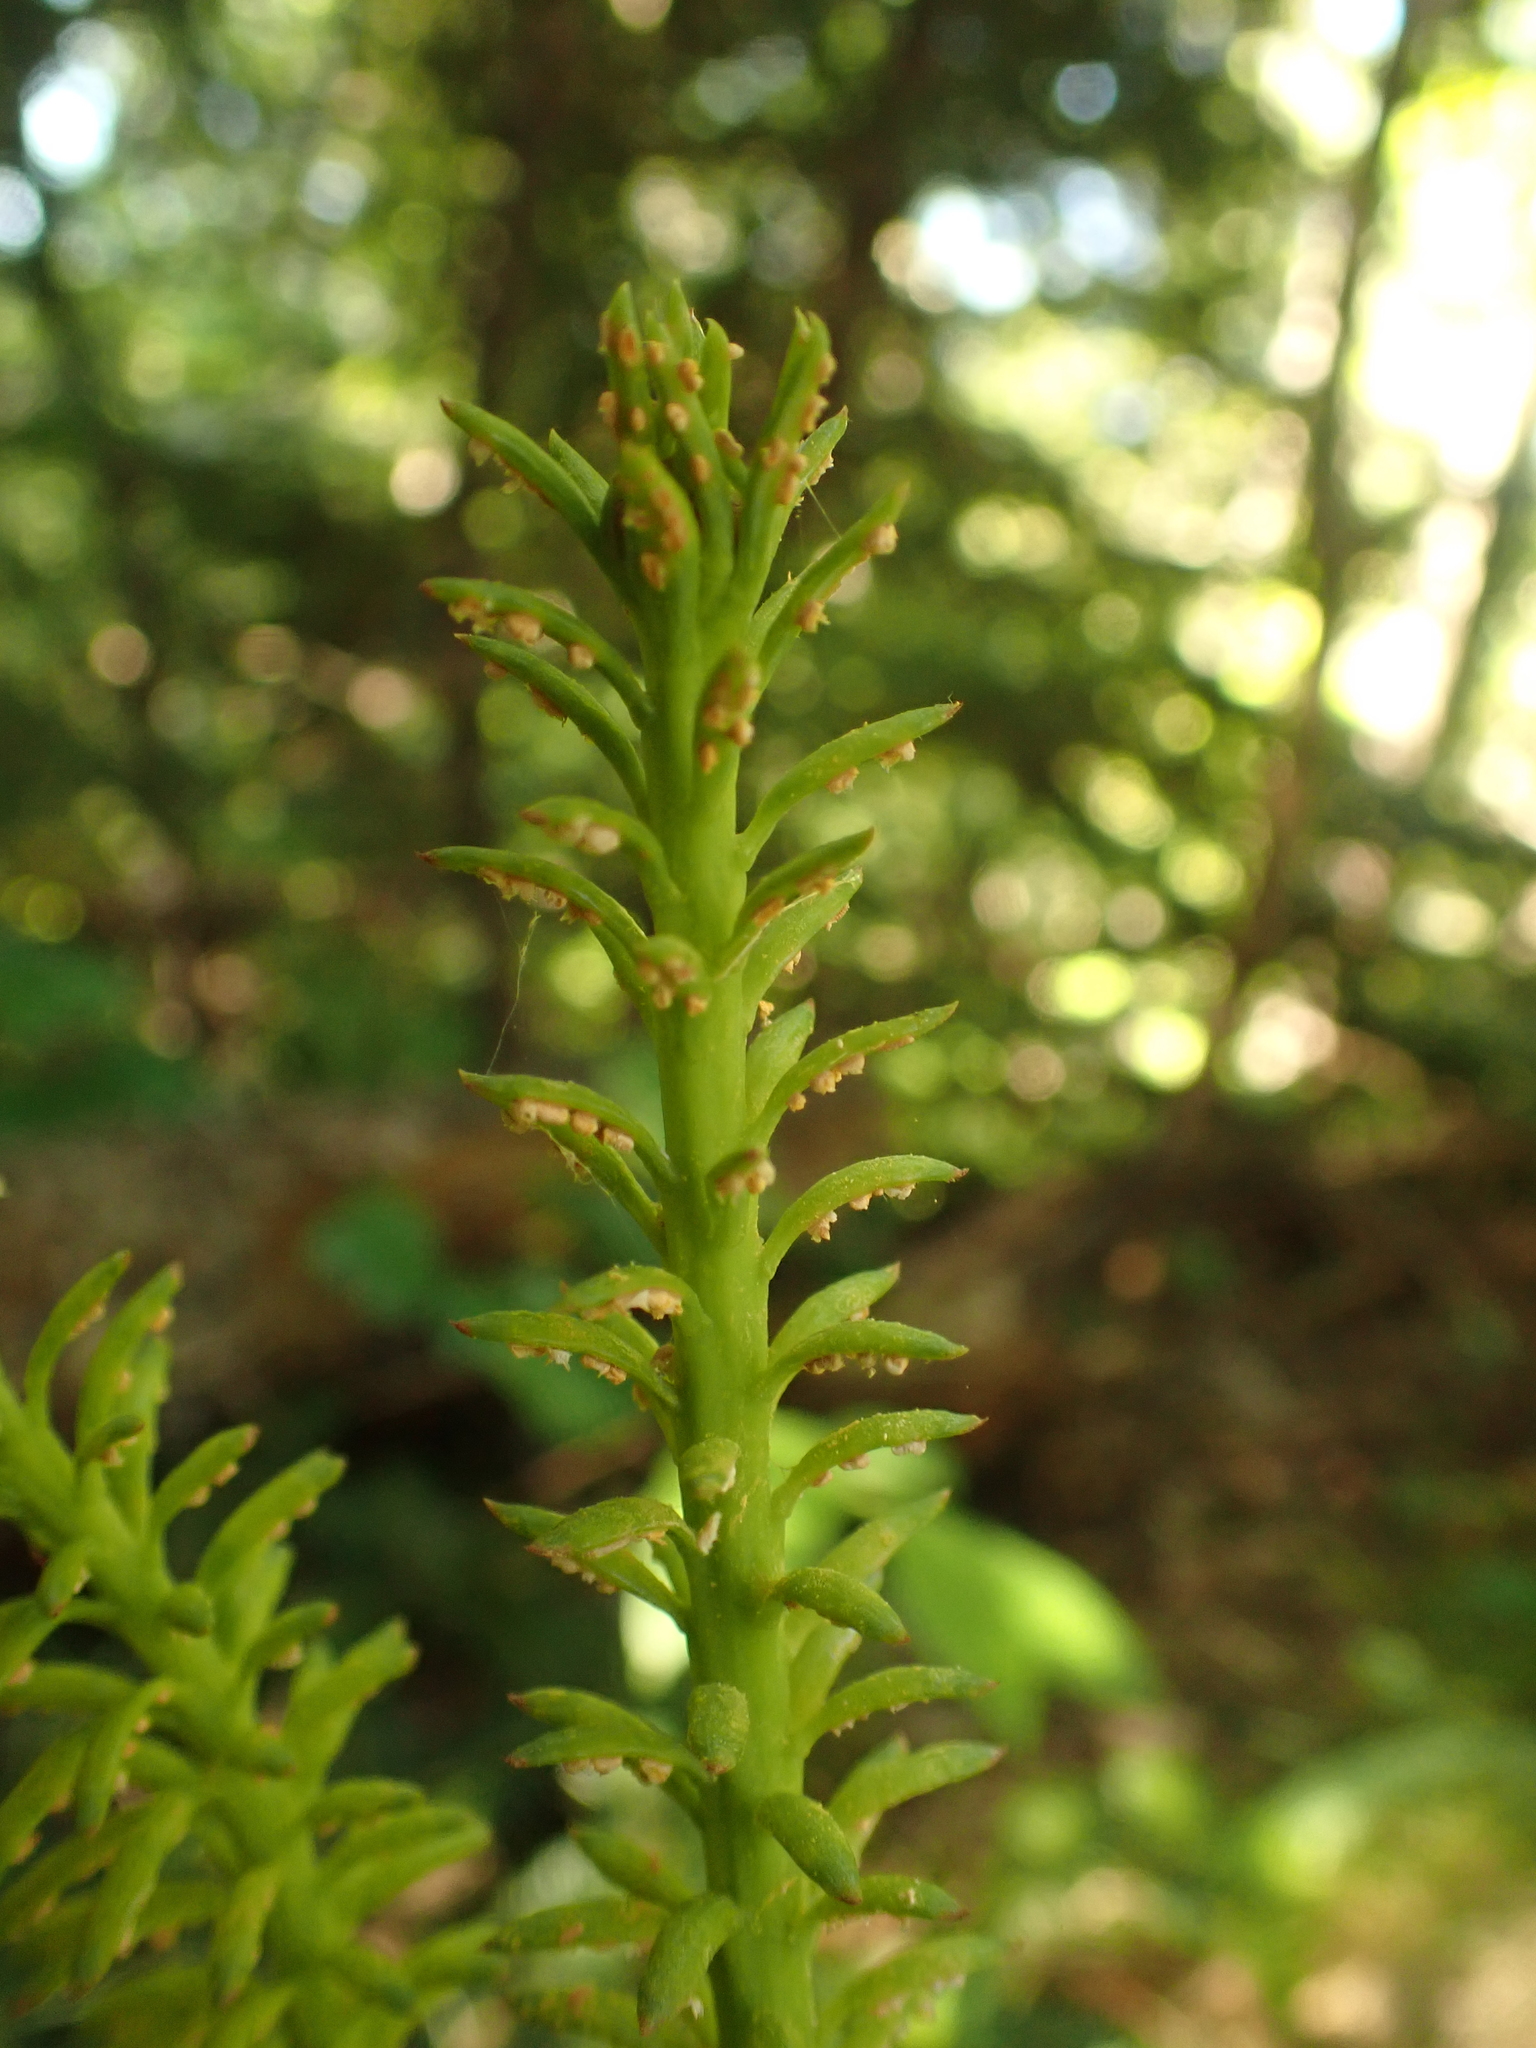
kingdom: Fungi
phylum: Basidiomycota
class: Pucciniomycetes
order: Pucciniales
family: Pucciniastraceae
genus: Melampsorella
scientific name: Melampsorella elatina
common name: Fir broom rust
